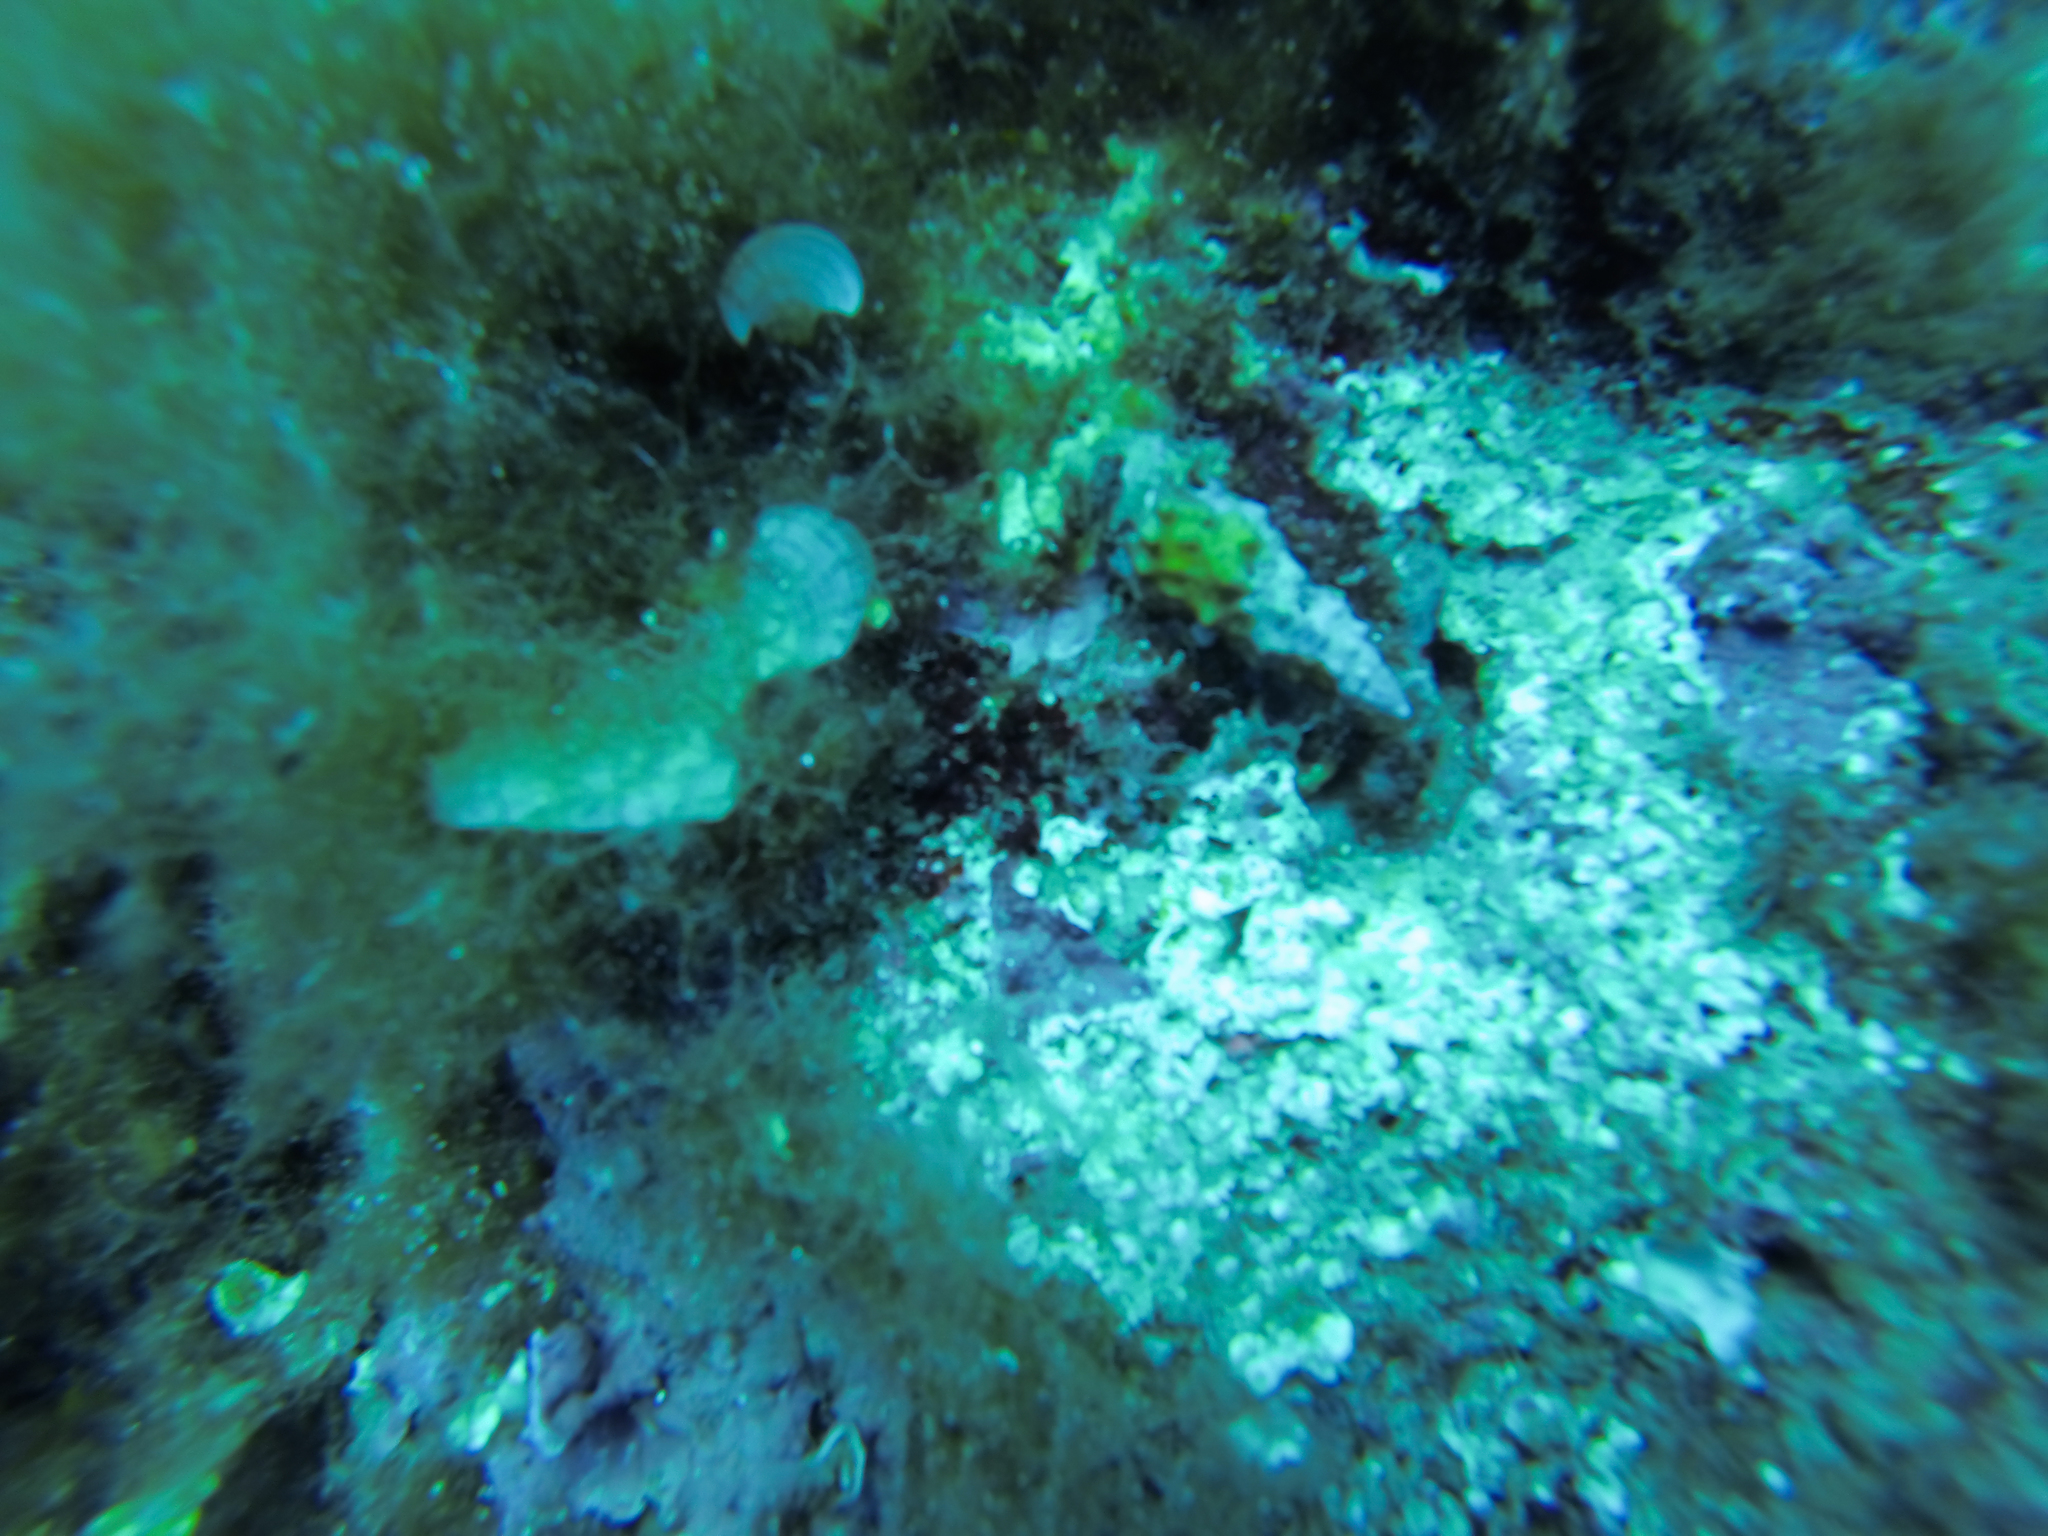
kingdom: Animalia
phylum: Mollusca
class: Gastropoda
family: Cerithiidae
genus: Cerithium
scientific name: Cerithium vulgatum
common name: European cerith
